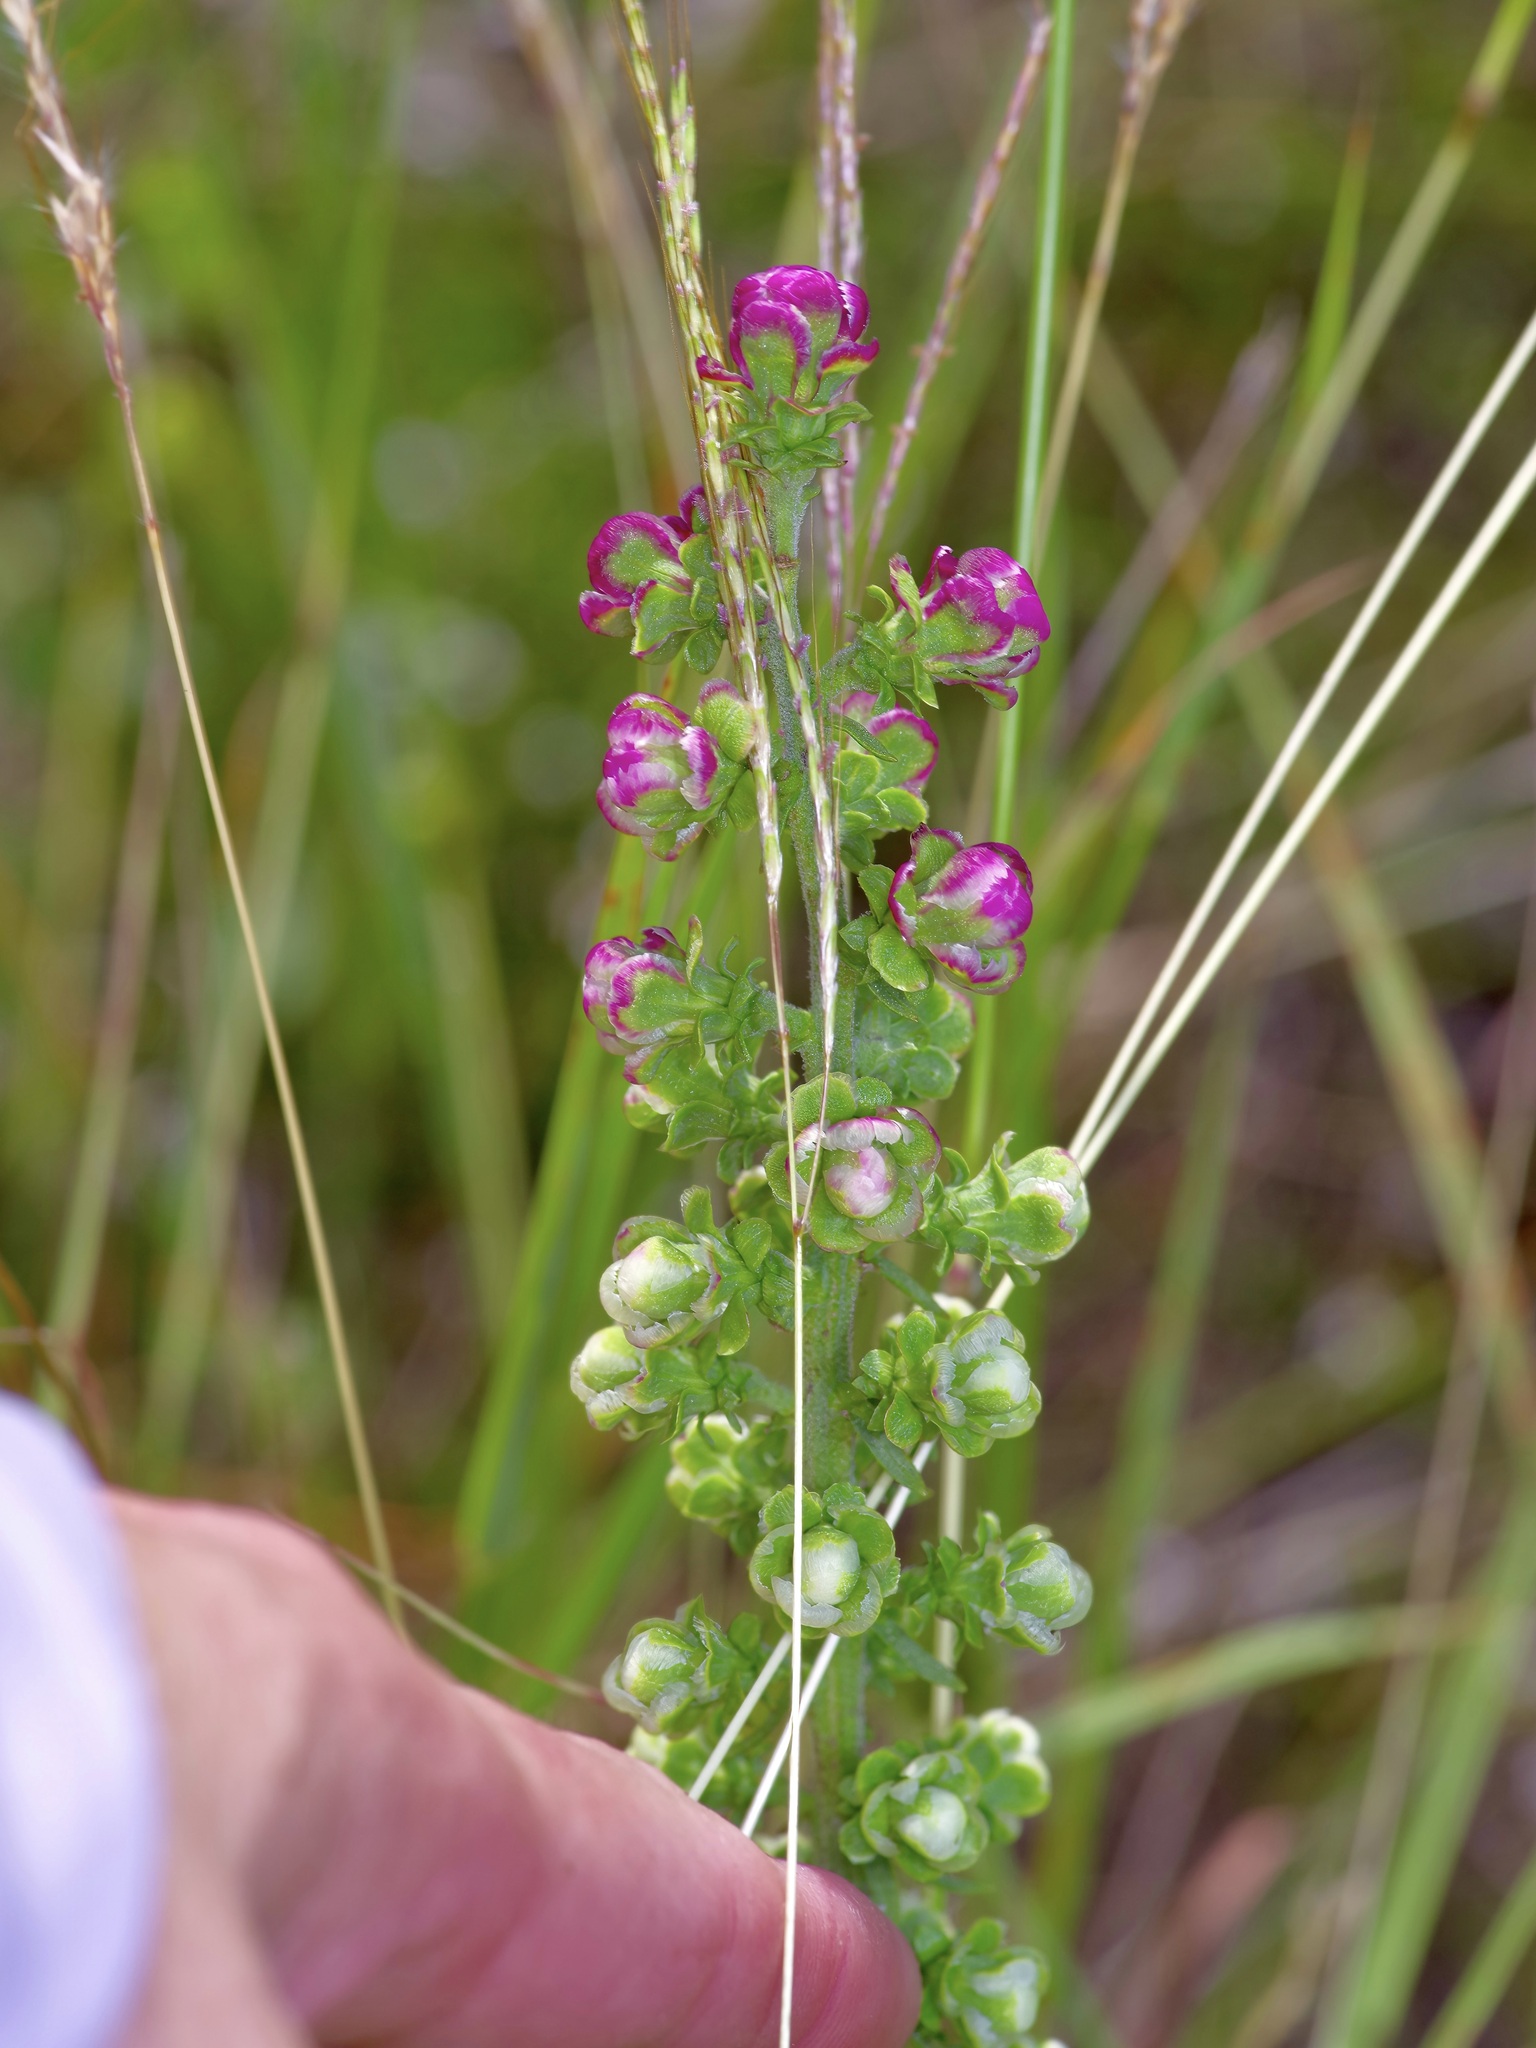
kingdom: Plantae
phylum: Tracheophyta
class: Magnoliopsida
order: Asterales
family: Asteraceae
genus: Liatris
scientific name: Liatris aspera
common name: Lacerate blazing-star
